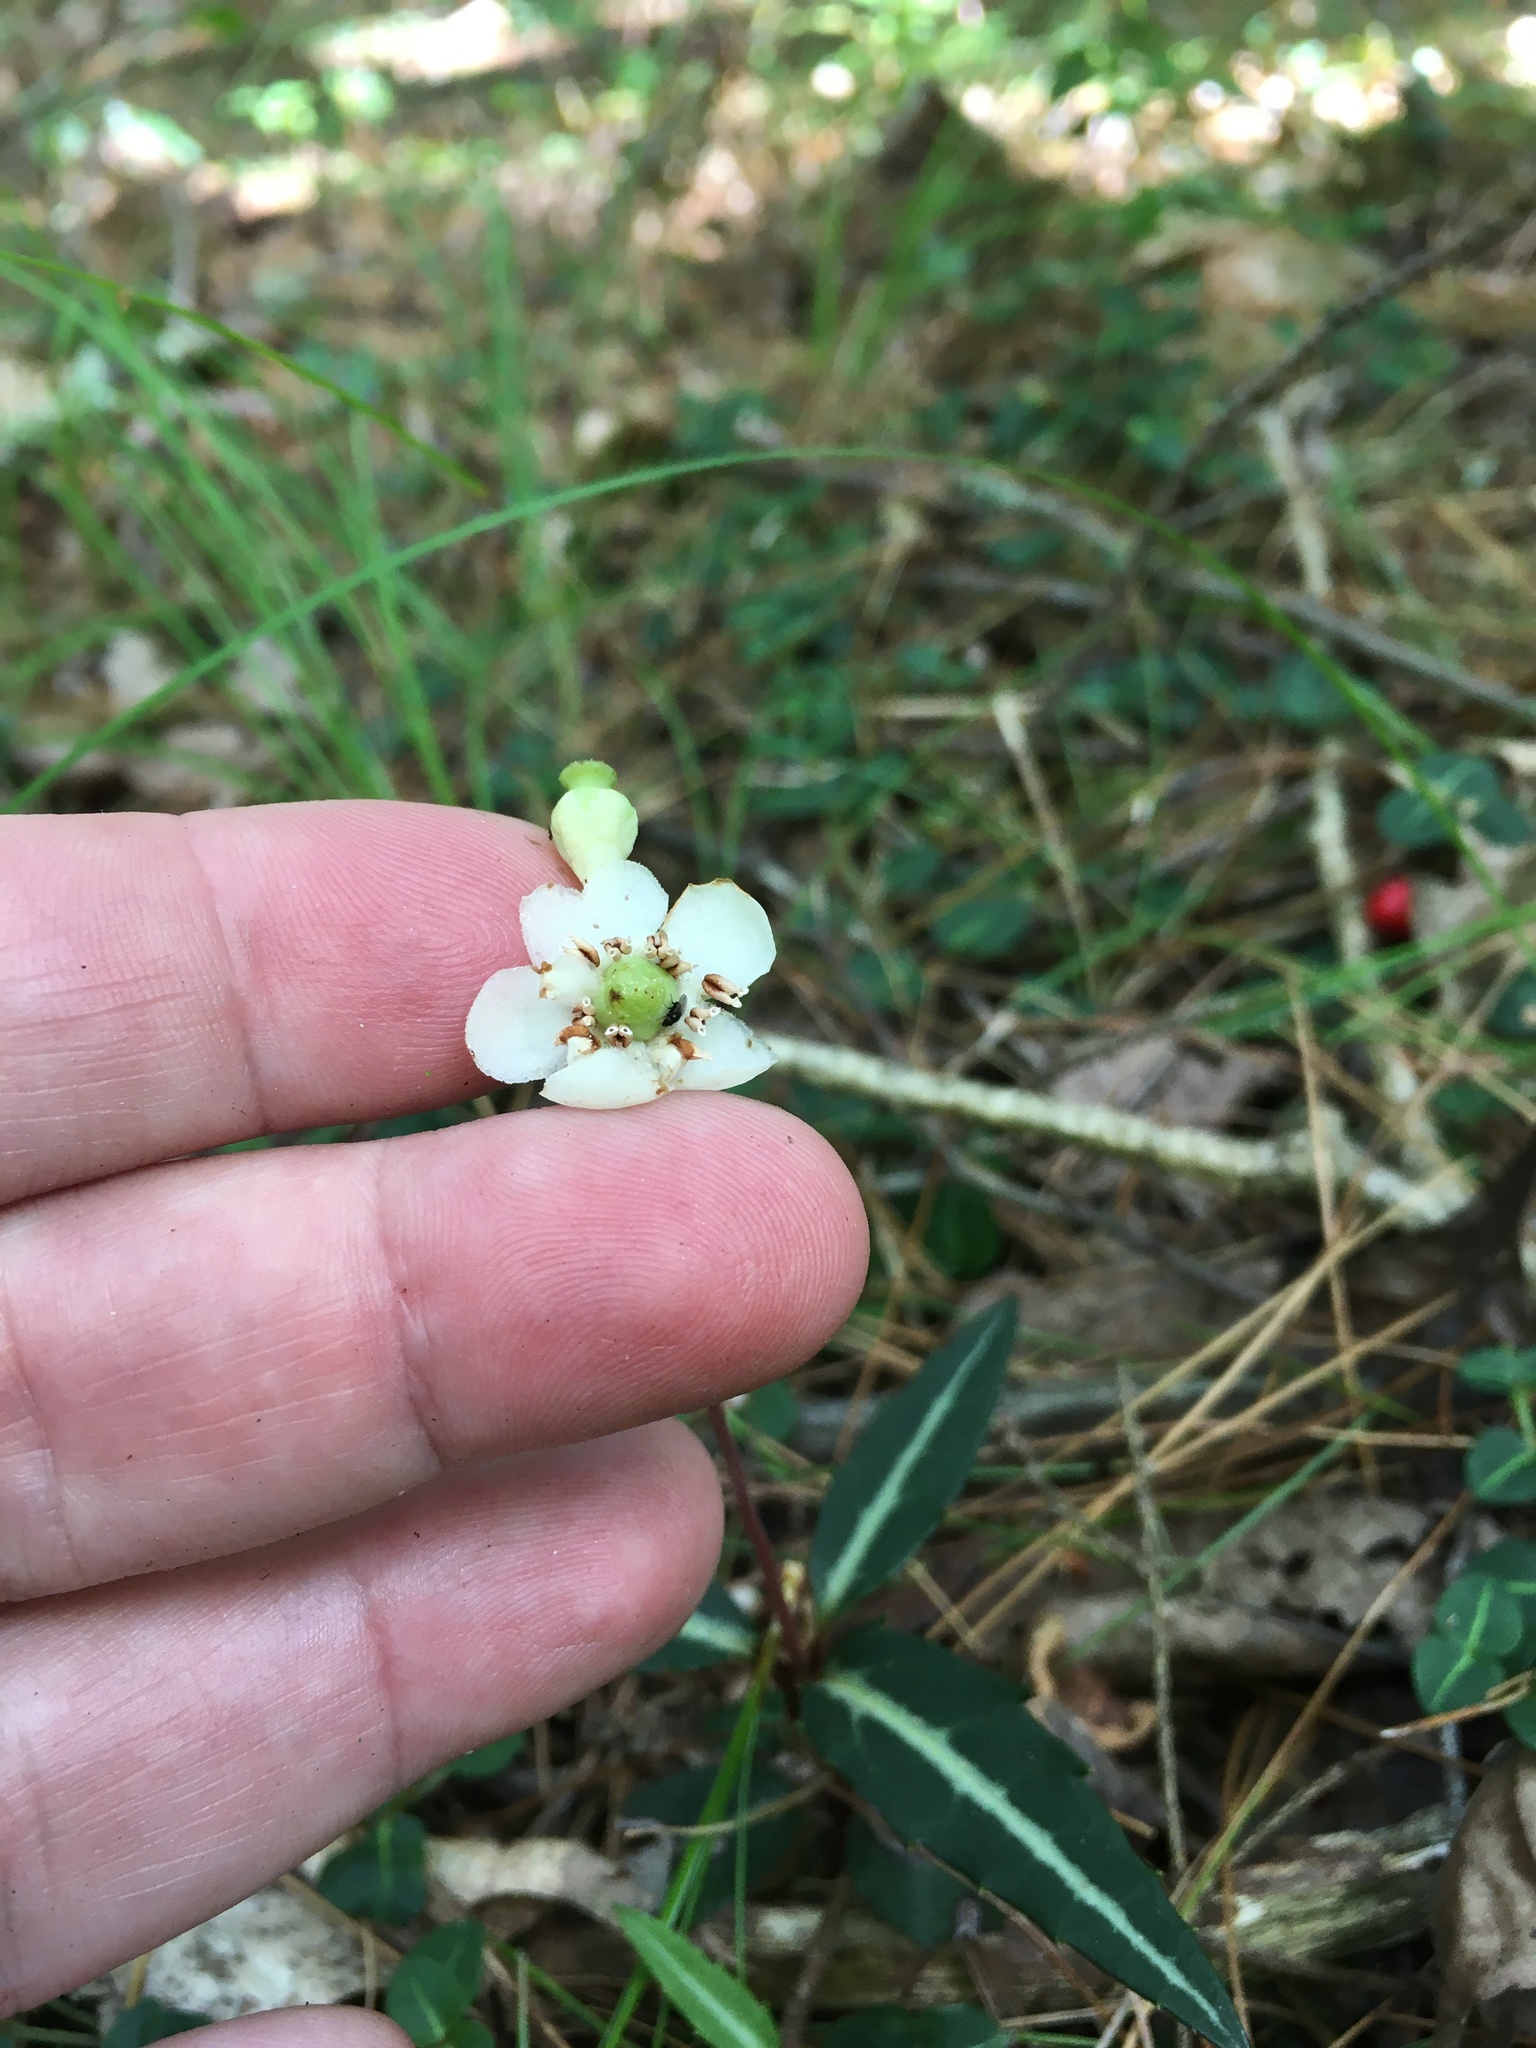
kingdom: Plantae
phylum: Tracheophyta
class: Magnoliopsida
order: Ericales
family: Ericaceae
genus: Chimaphila
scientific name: Chimaphila maculata
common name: Spotted pipsissewa
